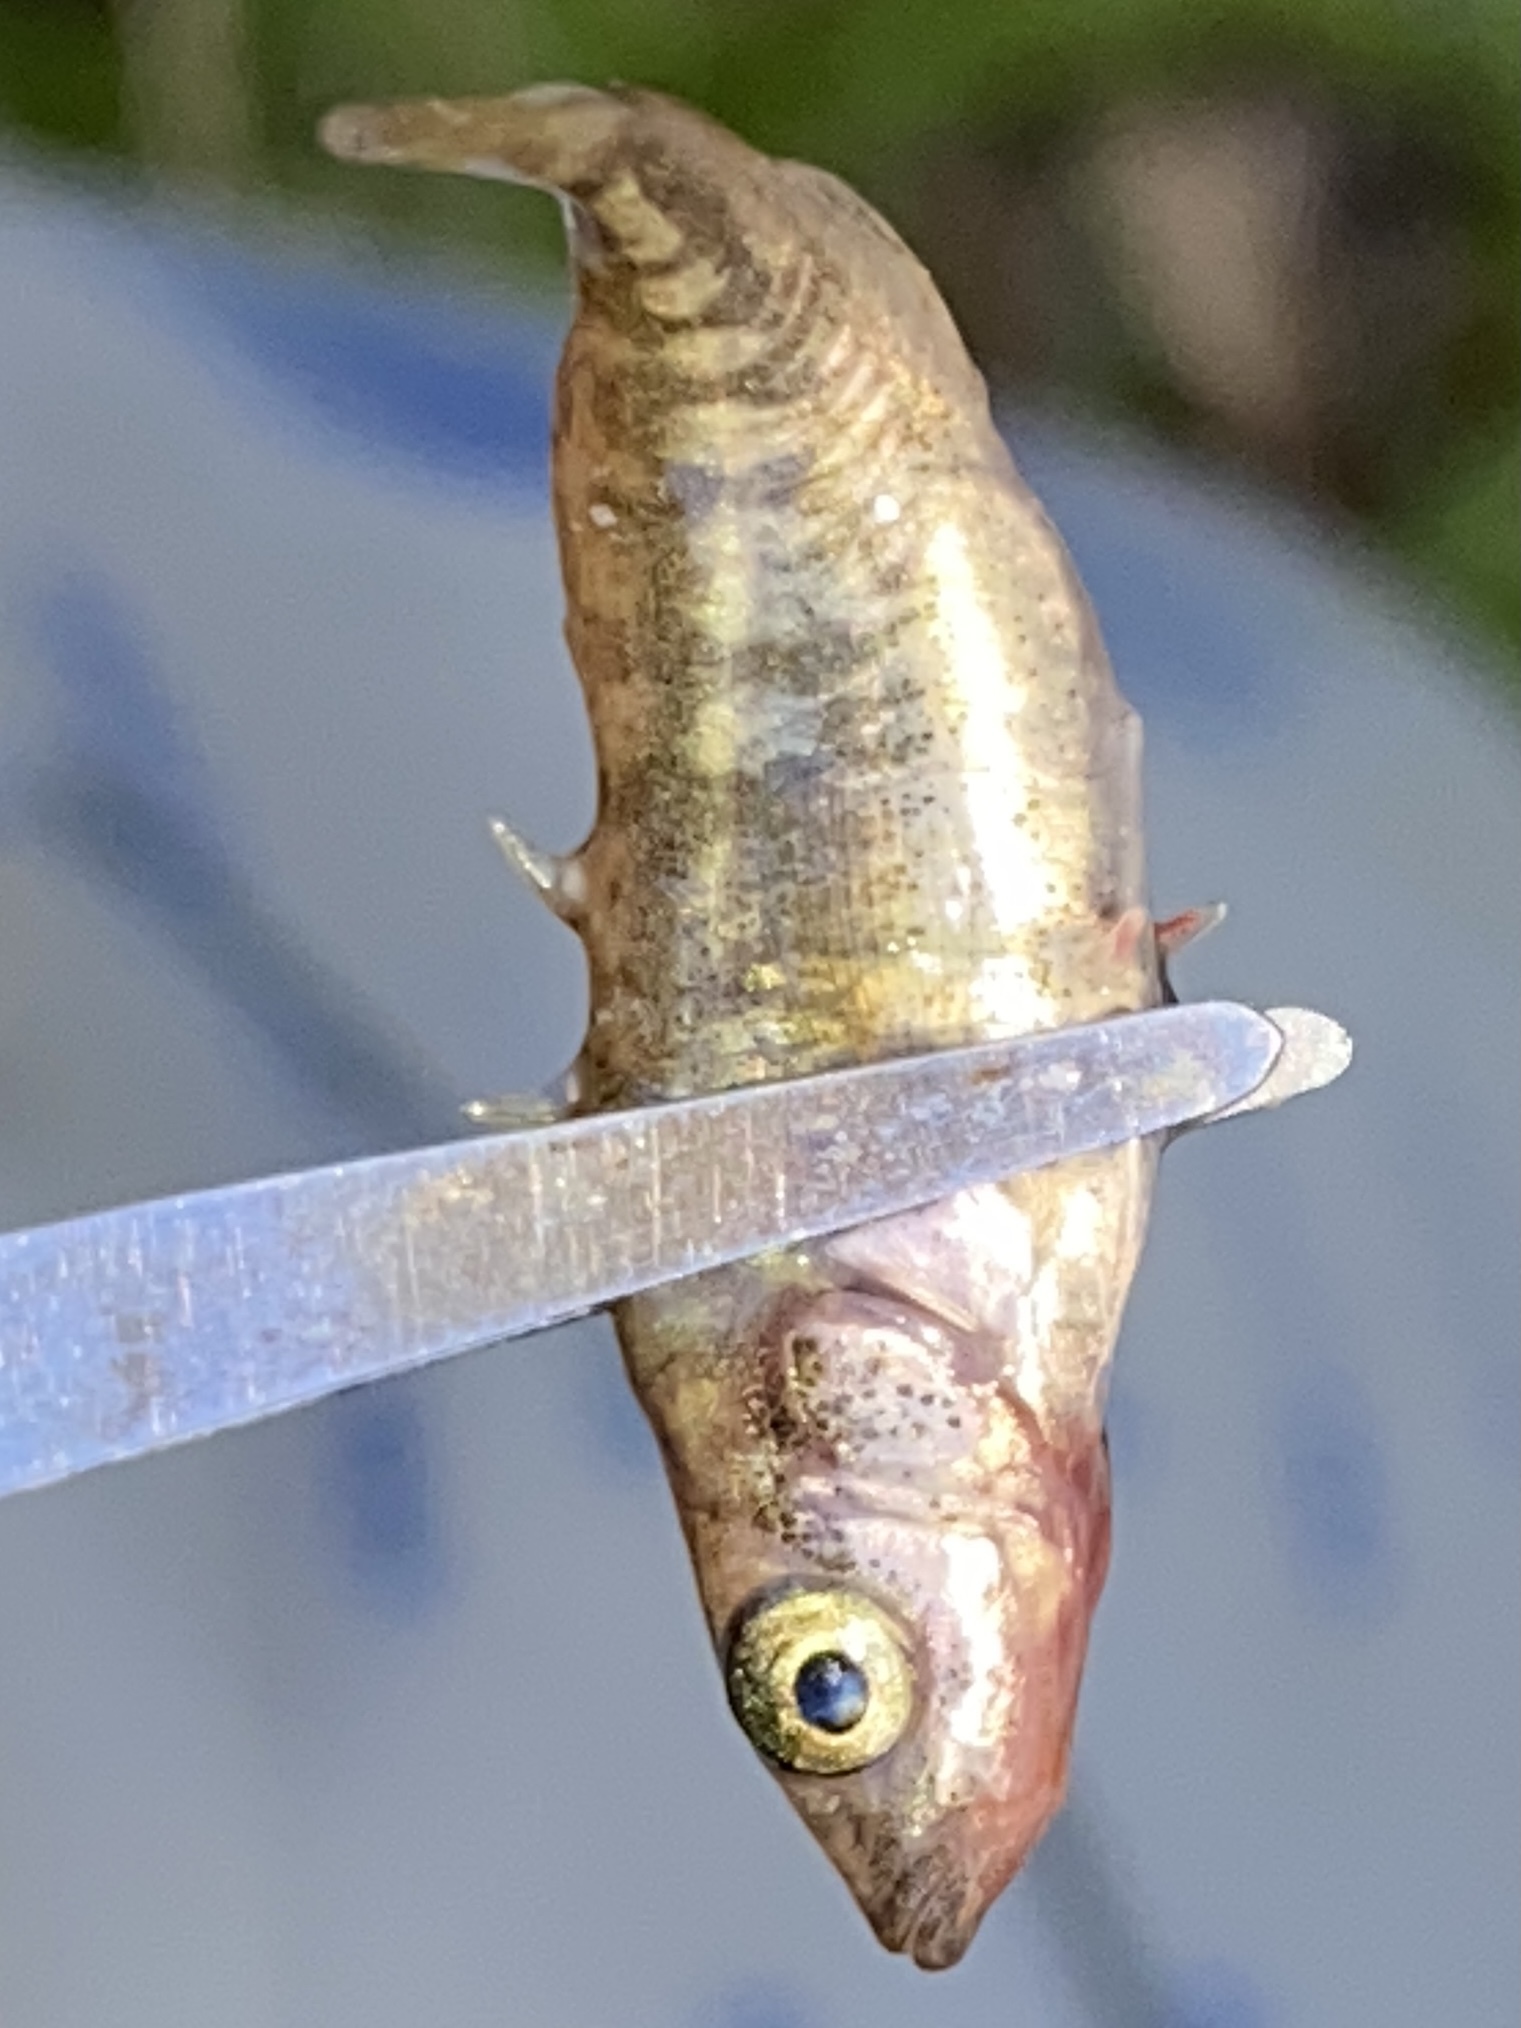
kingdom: Animalia
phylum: Chordata
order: Gasterosteiformes
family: Gasterosteidae
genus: Gasterosteus
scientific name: Gasterosteus aculeatus
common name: Three-spined stickleback
